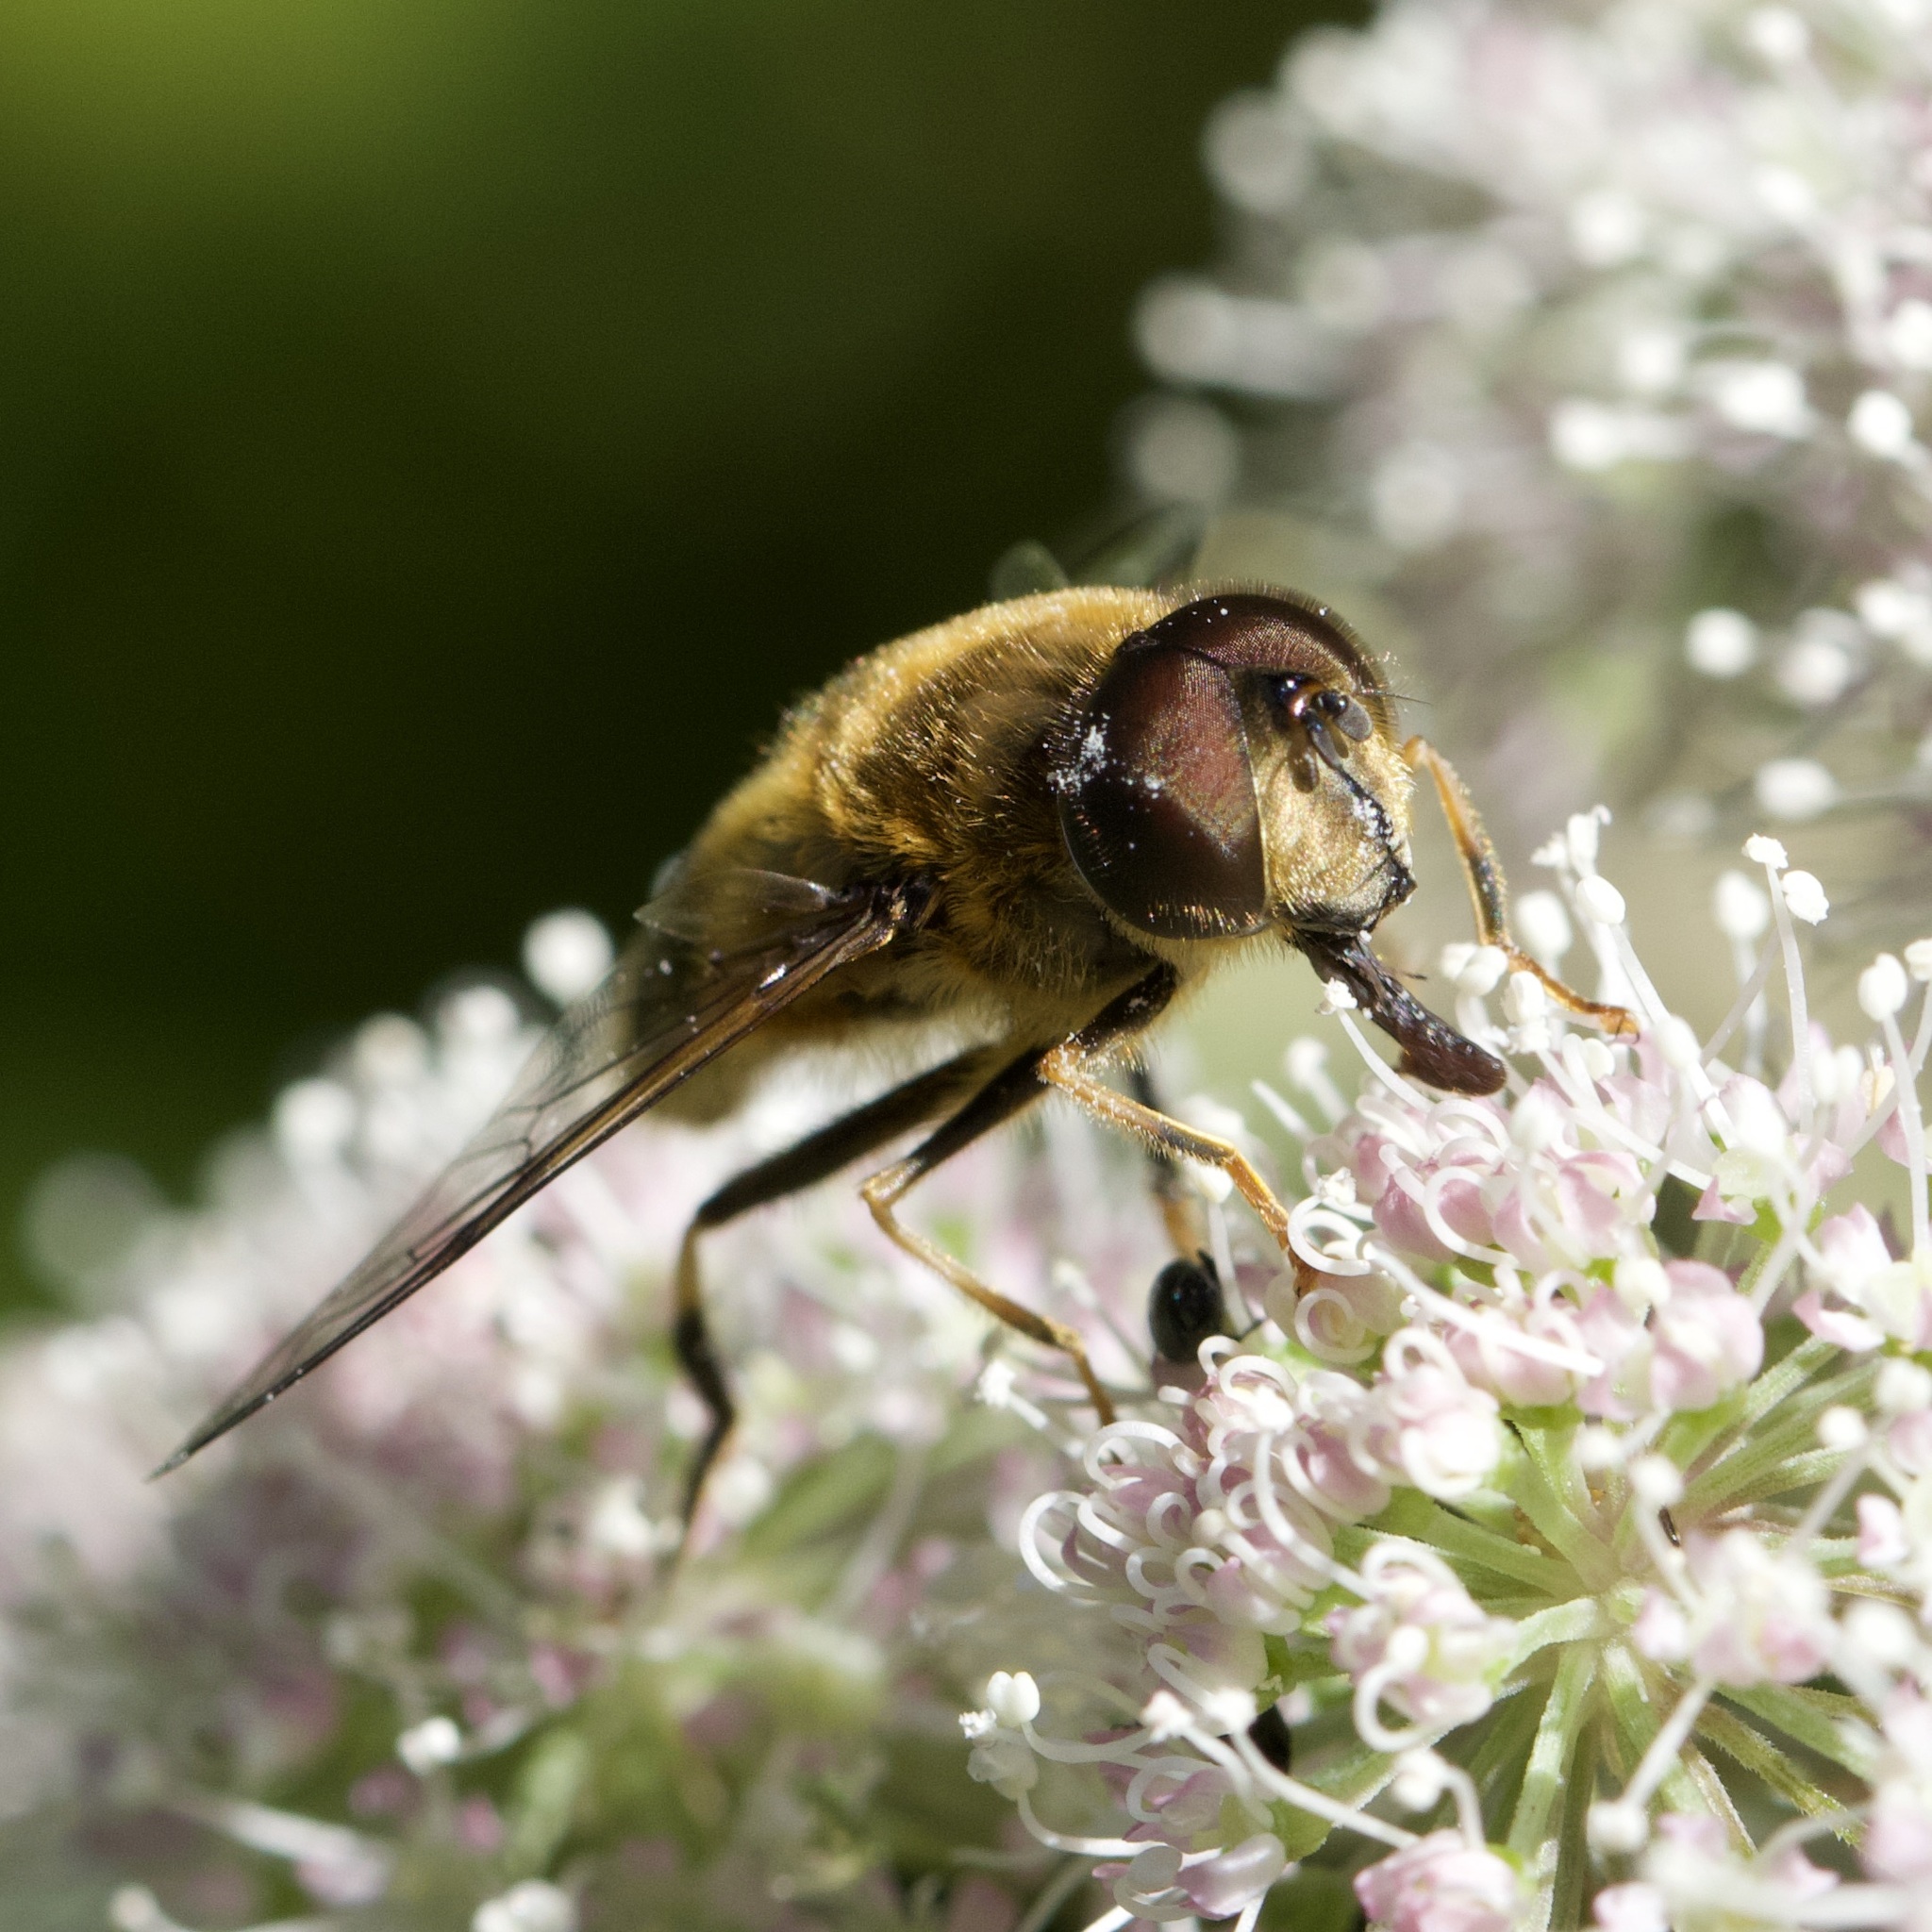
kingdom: Animalia
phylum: Arthropoda
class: Insecta
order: Diptera
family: Syrphidae
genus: Eristalis
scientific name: Eristalis pertinax
